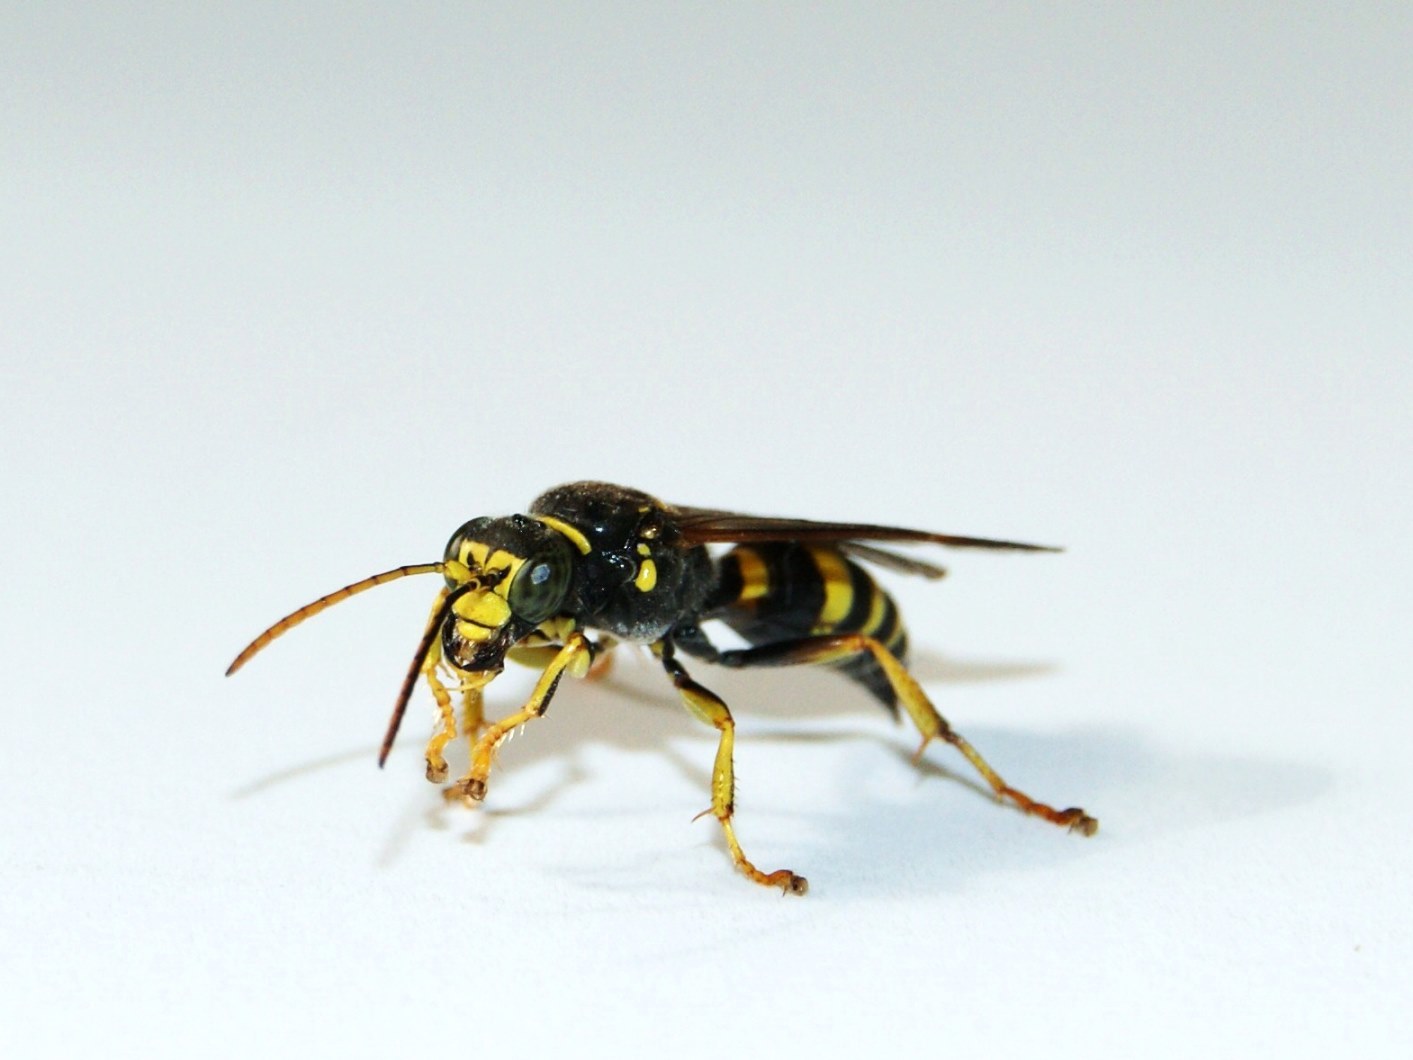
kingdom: Animalia
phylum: Arthropoda
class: Insecta
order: Hymenoptera
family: Crabronidae
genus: Gorytes
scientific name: Gorytes laticinctus
